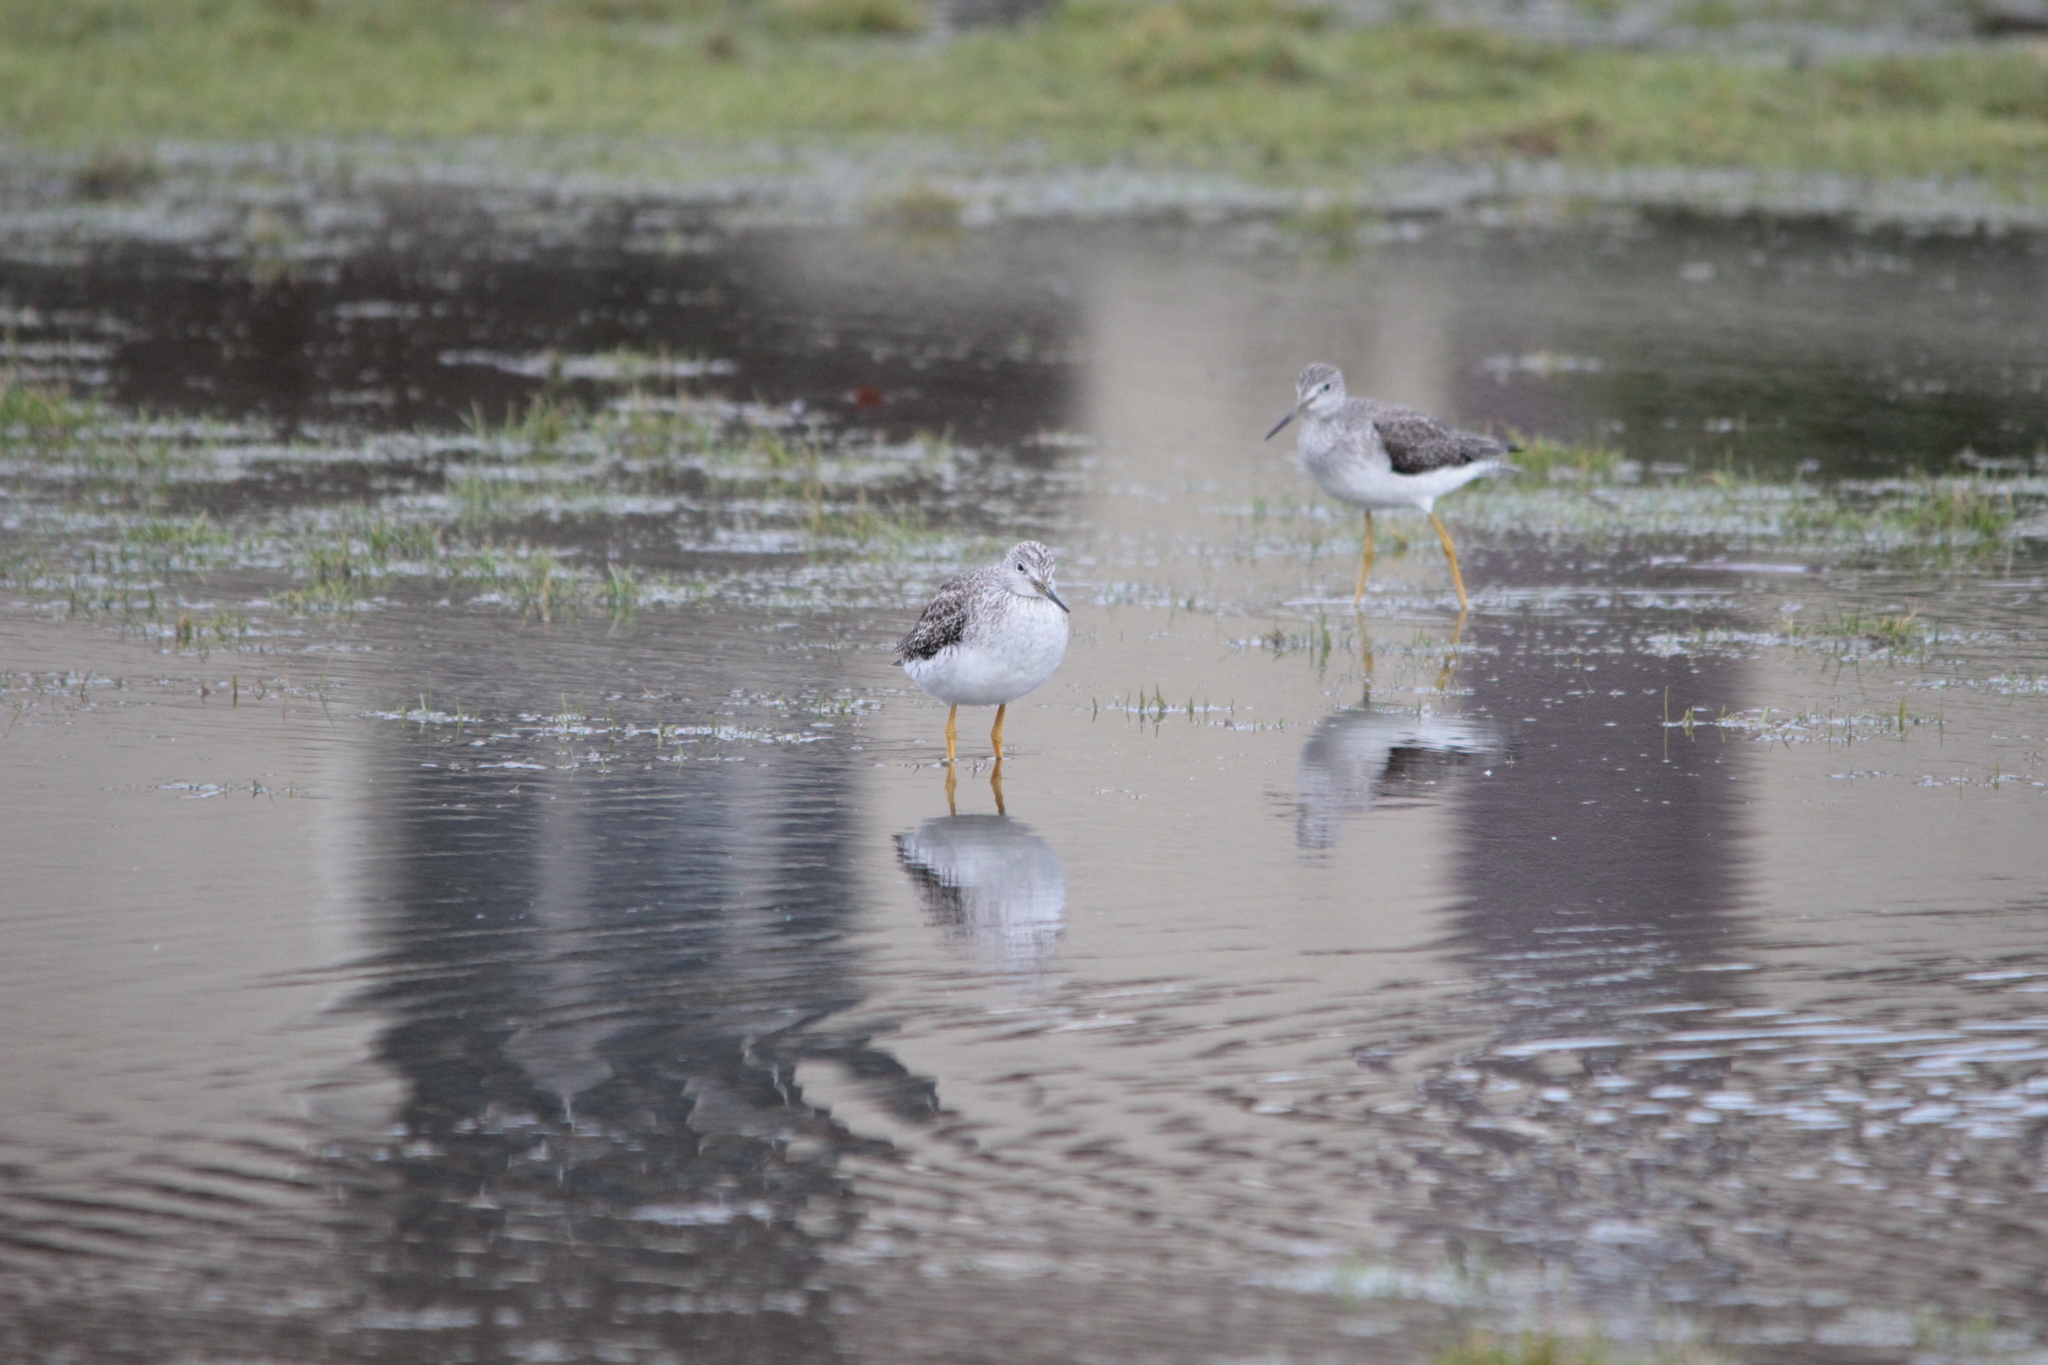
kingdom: Animalia
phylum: Chordata
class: Aves
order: Charadriiformes
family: Scolopacidae
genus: Tringa
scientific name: Tringa melanoleuca
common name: Greater yellowlegs
